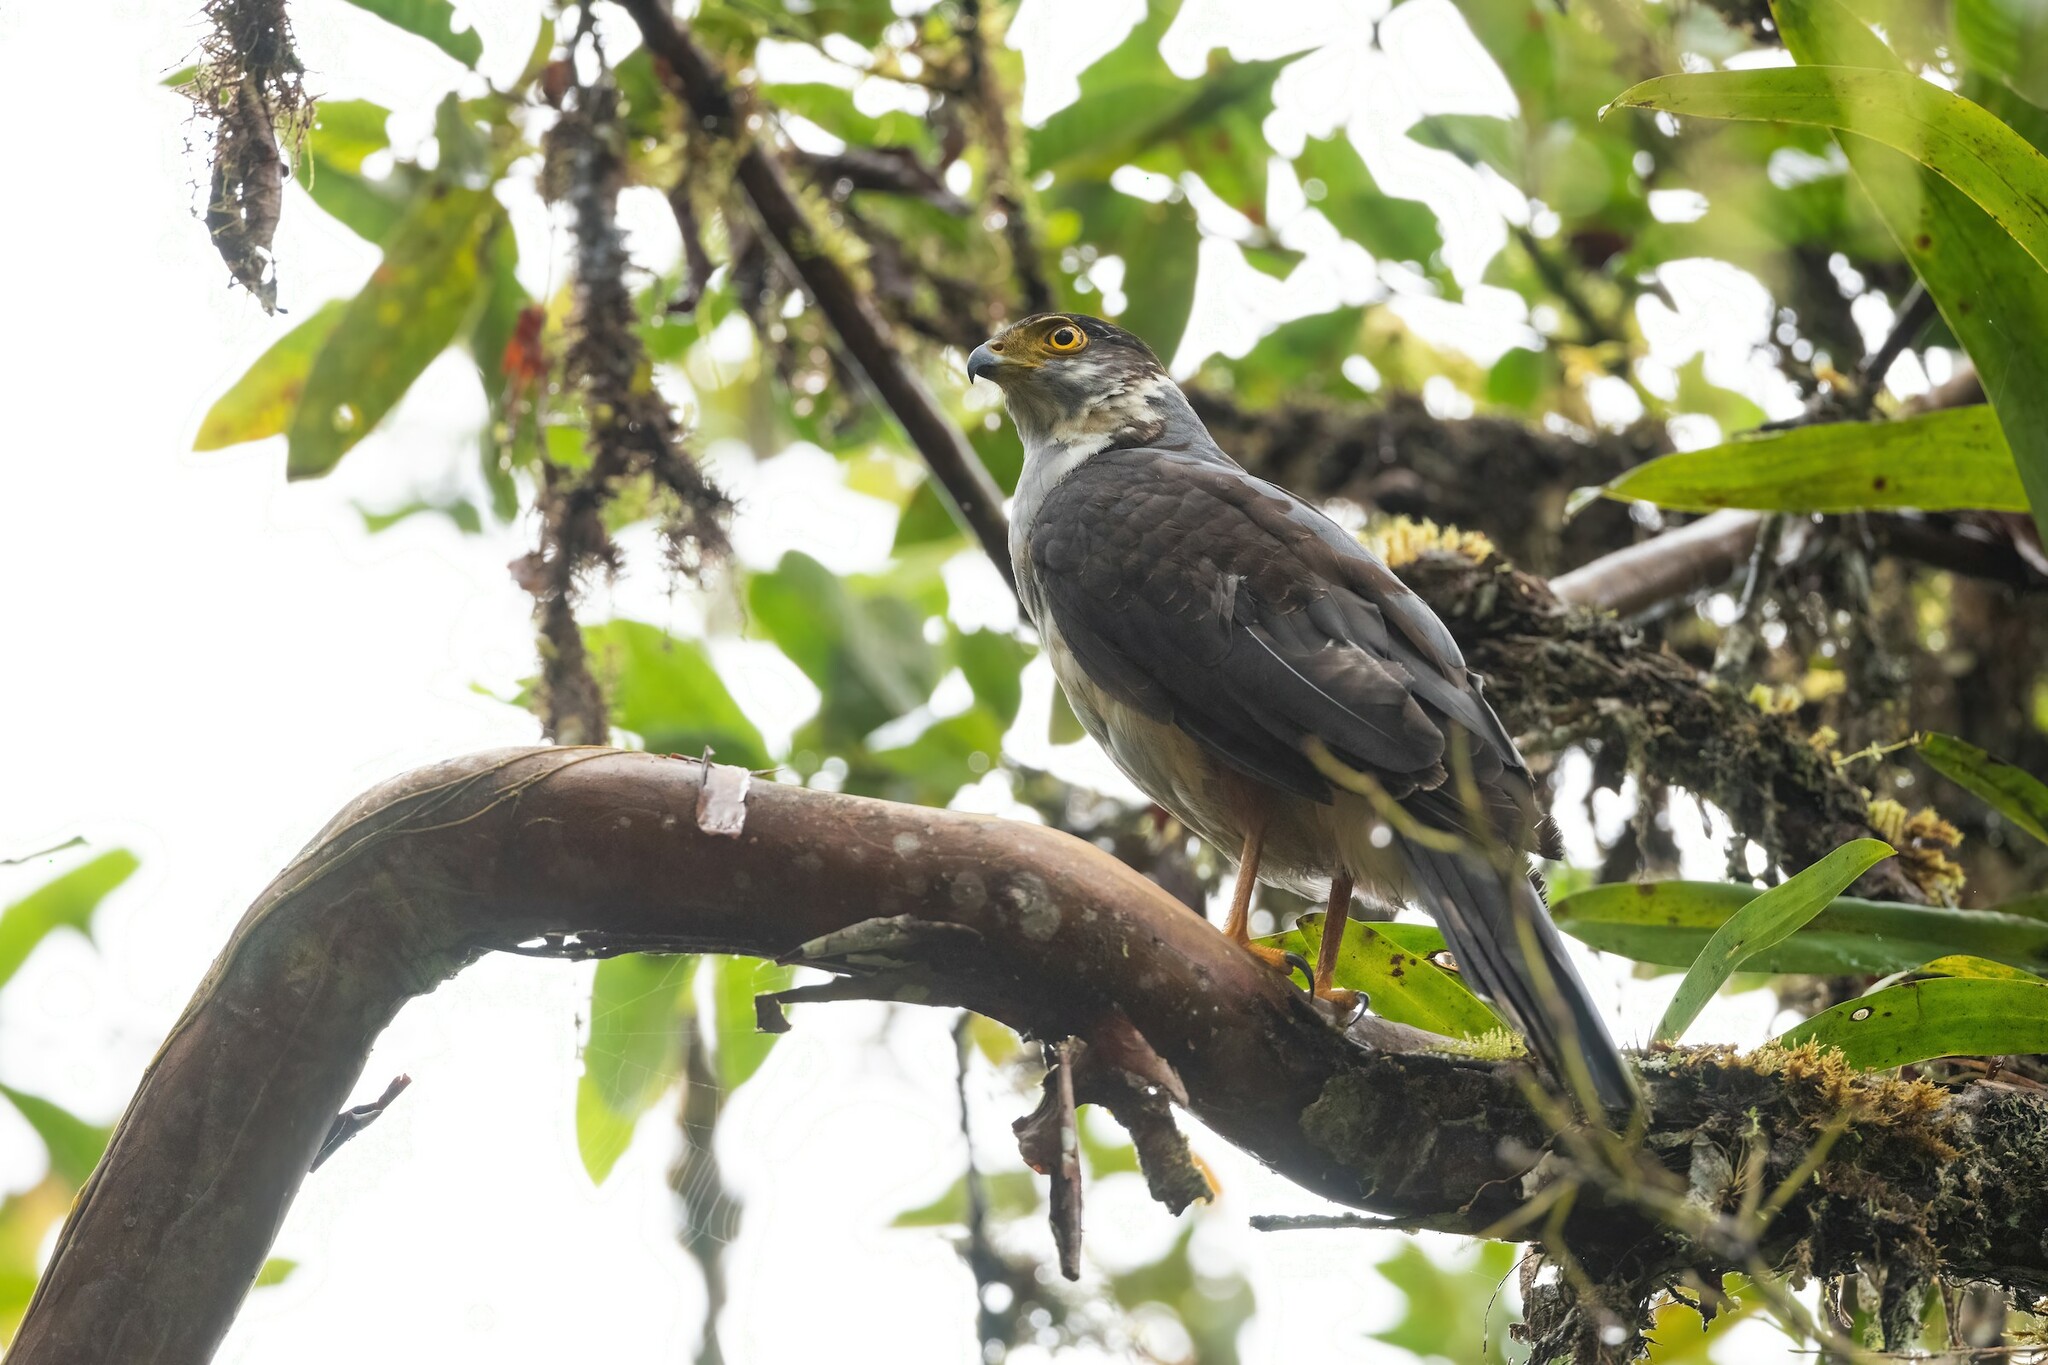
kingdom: Animalia
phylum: Chordata
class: Aves
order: Accipitriformes
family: Accipitridae
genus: Accipiter
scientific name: Accipiter bicolor
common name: Bicolored hawk
